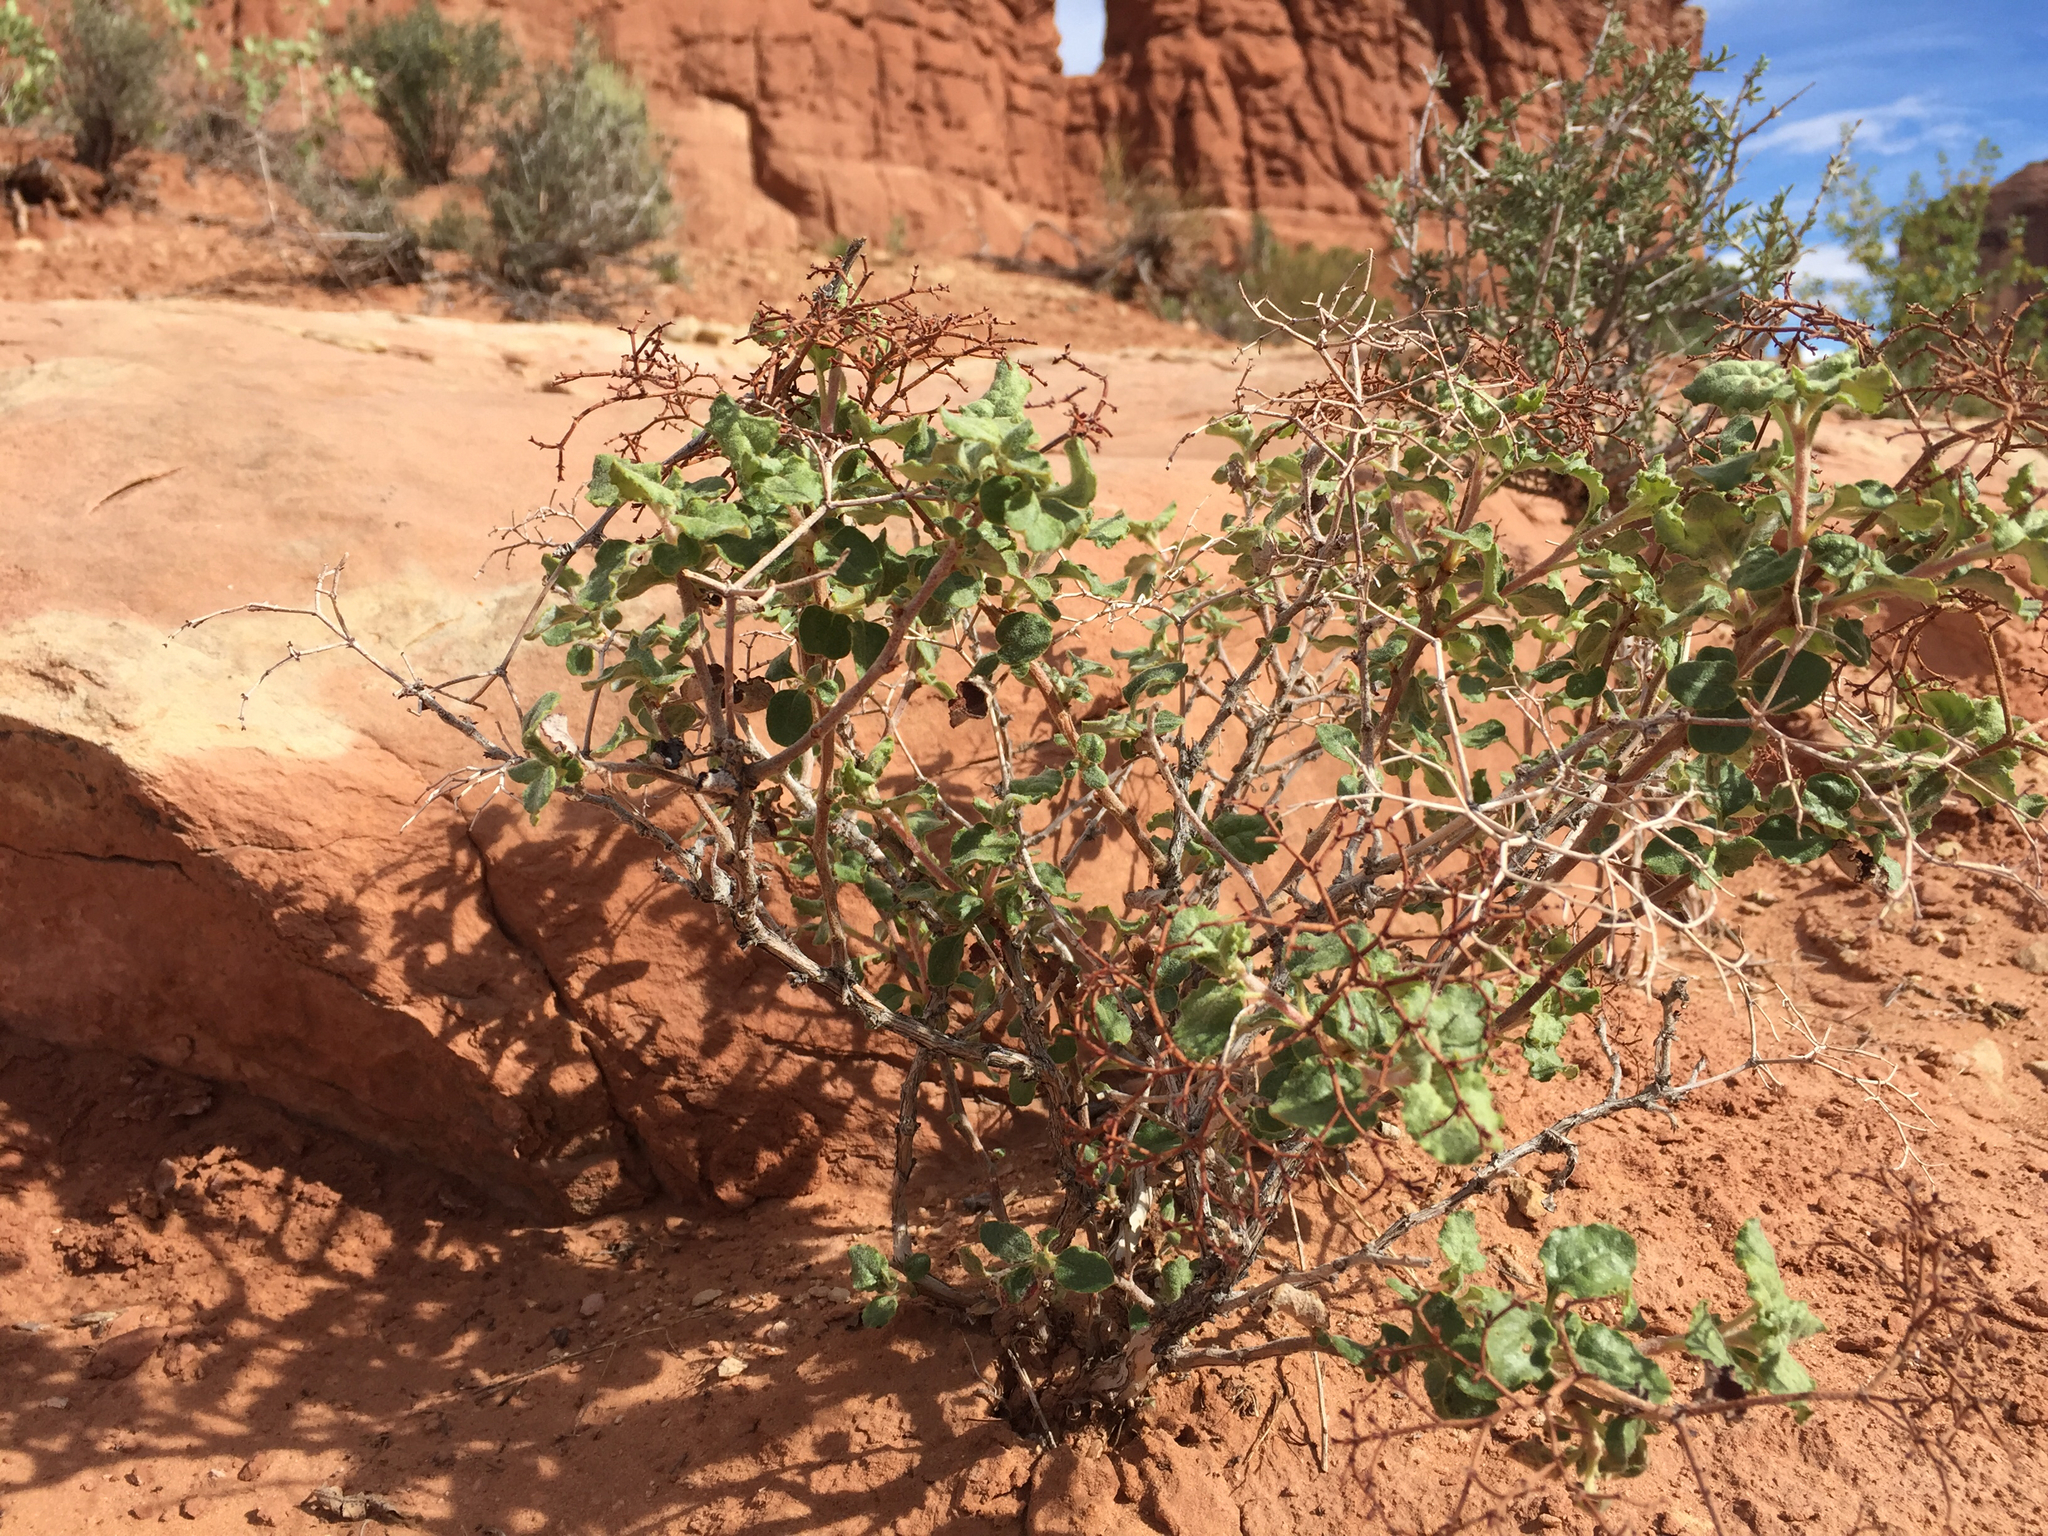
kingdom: Plantae
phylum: Tracheophyta
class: Magnoliopsida
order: Caryophyllales
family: Polygonaceae
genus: Eriogonum
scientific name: Eriogonum corymbosum
